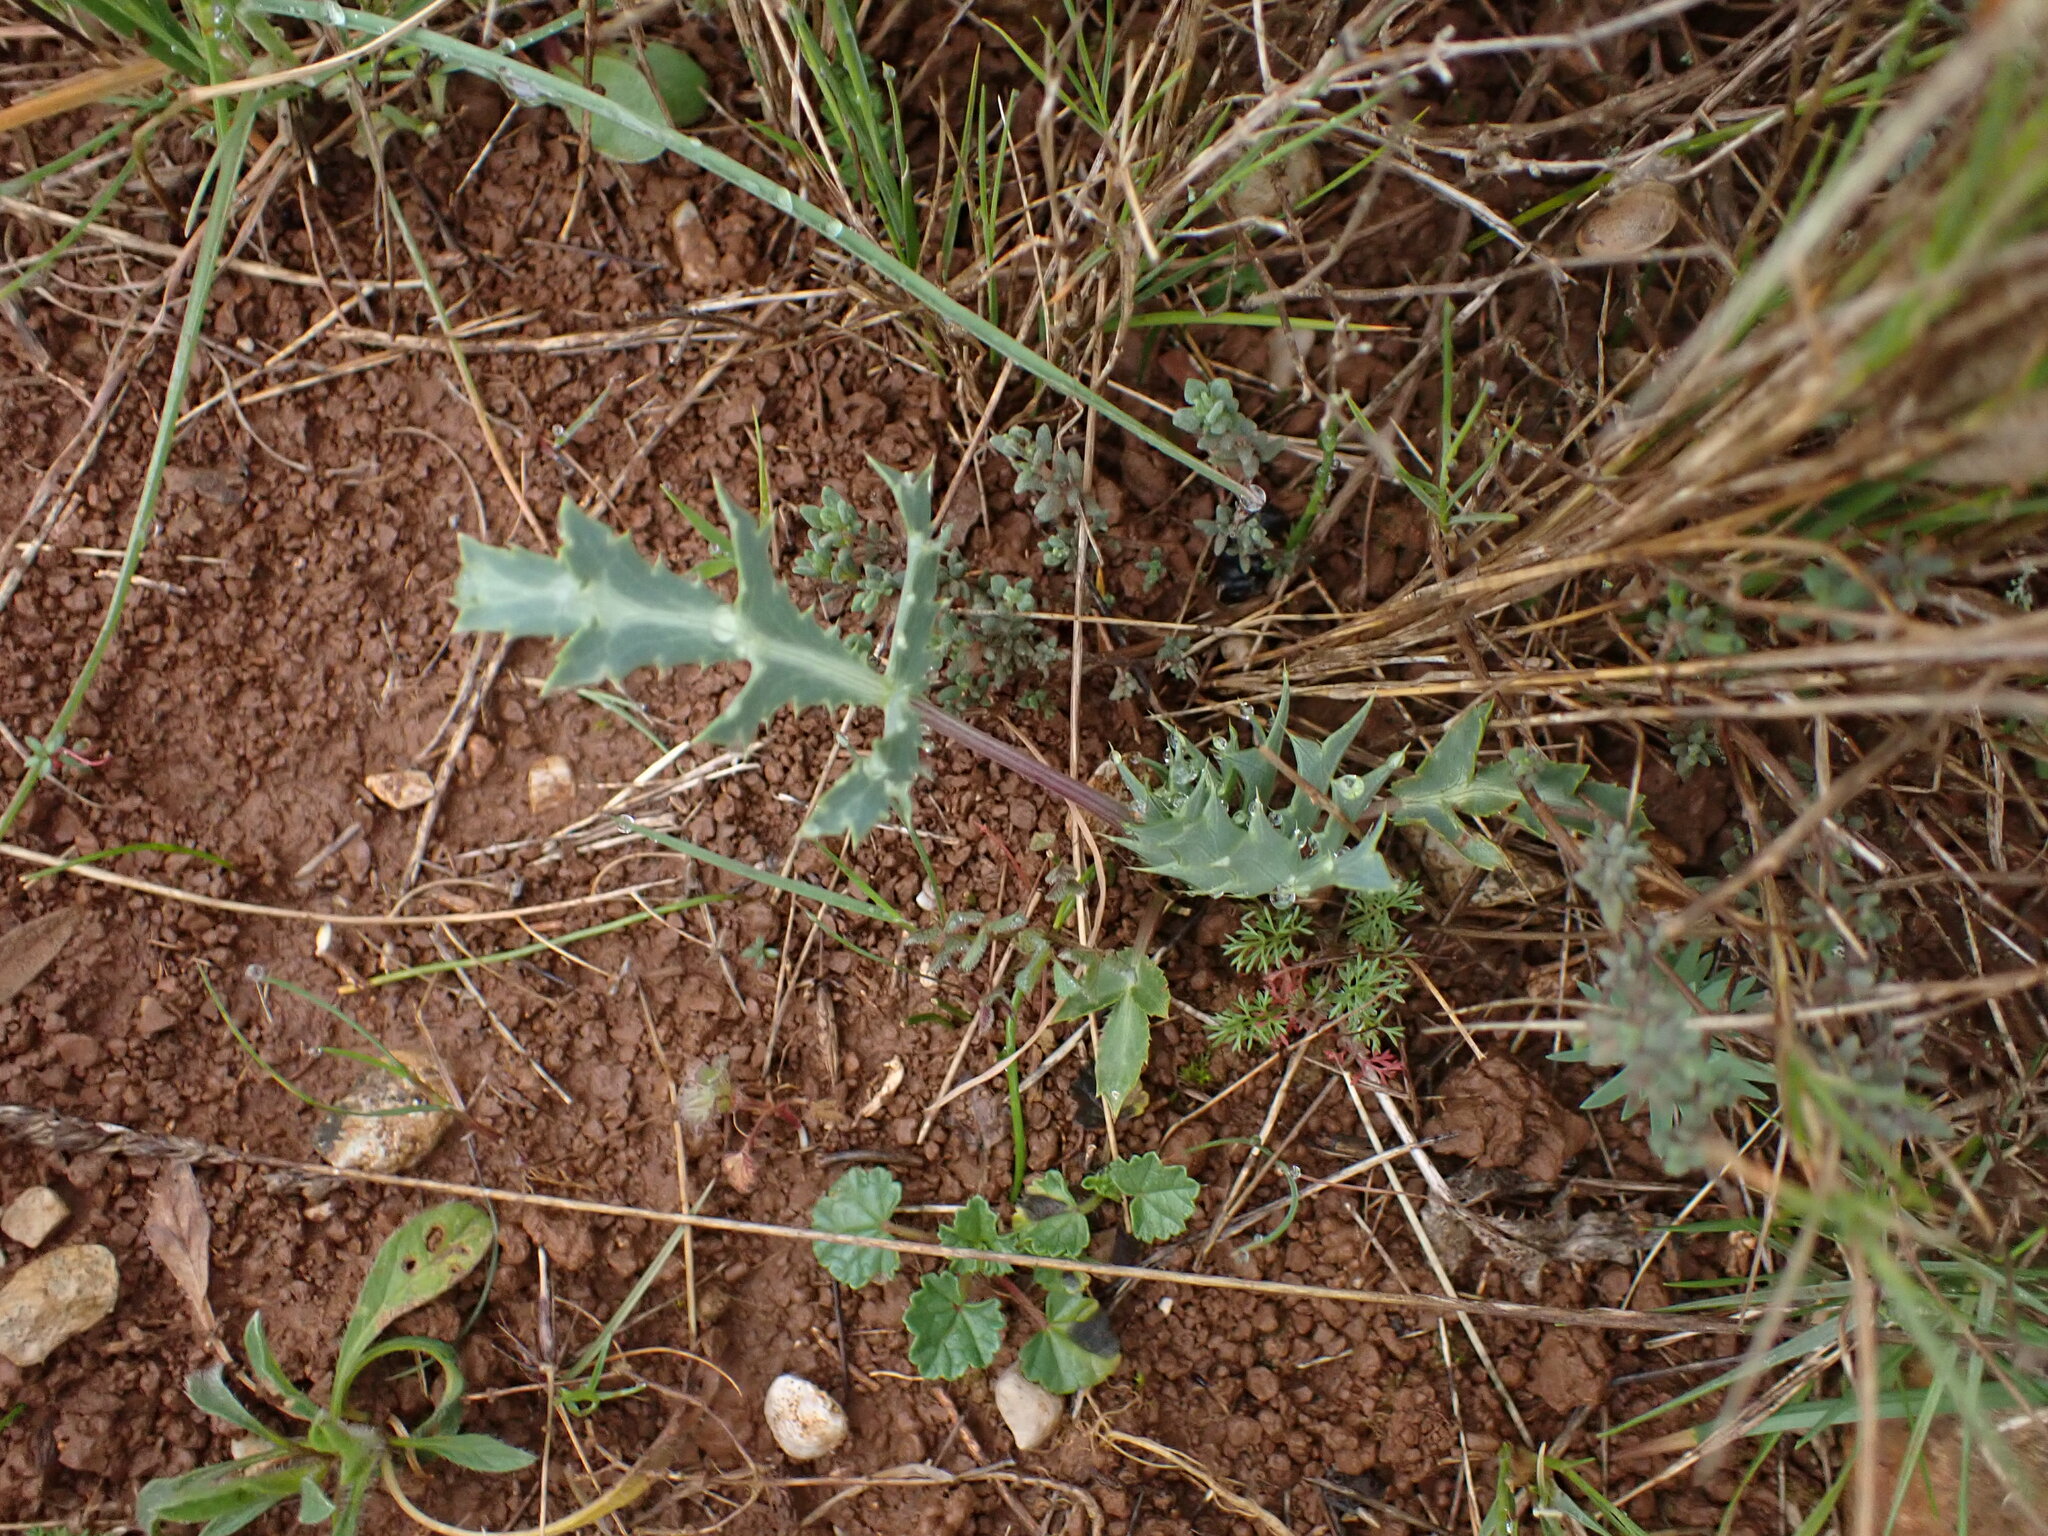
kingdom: Plantae
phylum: Tracheophyta
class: Magnoliopsida
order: Apiales
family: Apiaceae
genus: Eryngium
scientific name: Eryngium campestre
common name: Field eryngo
